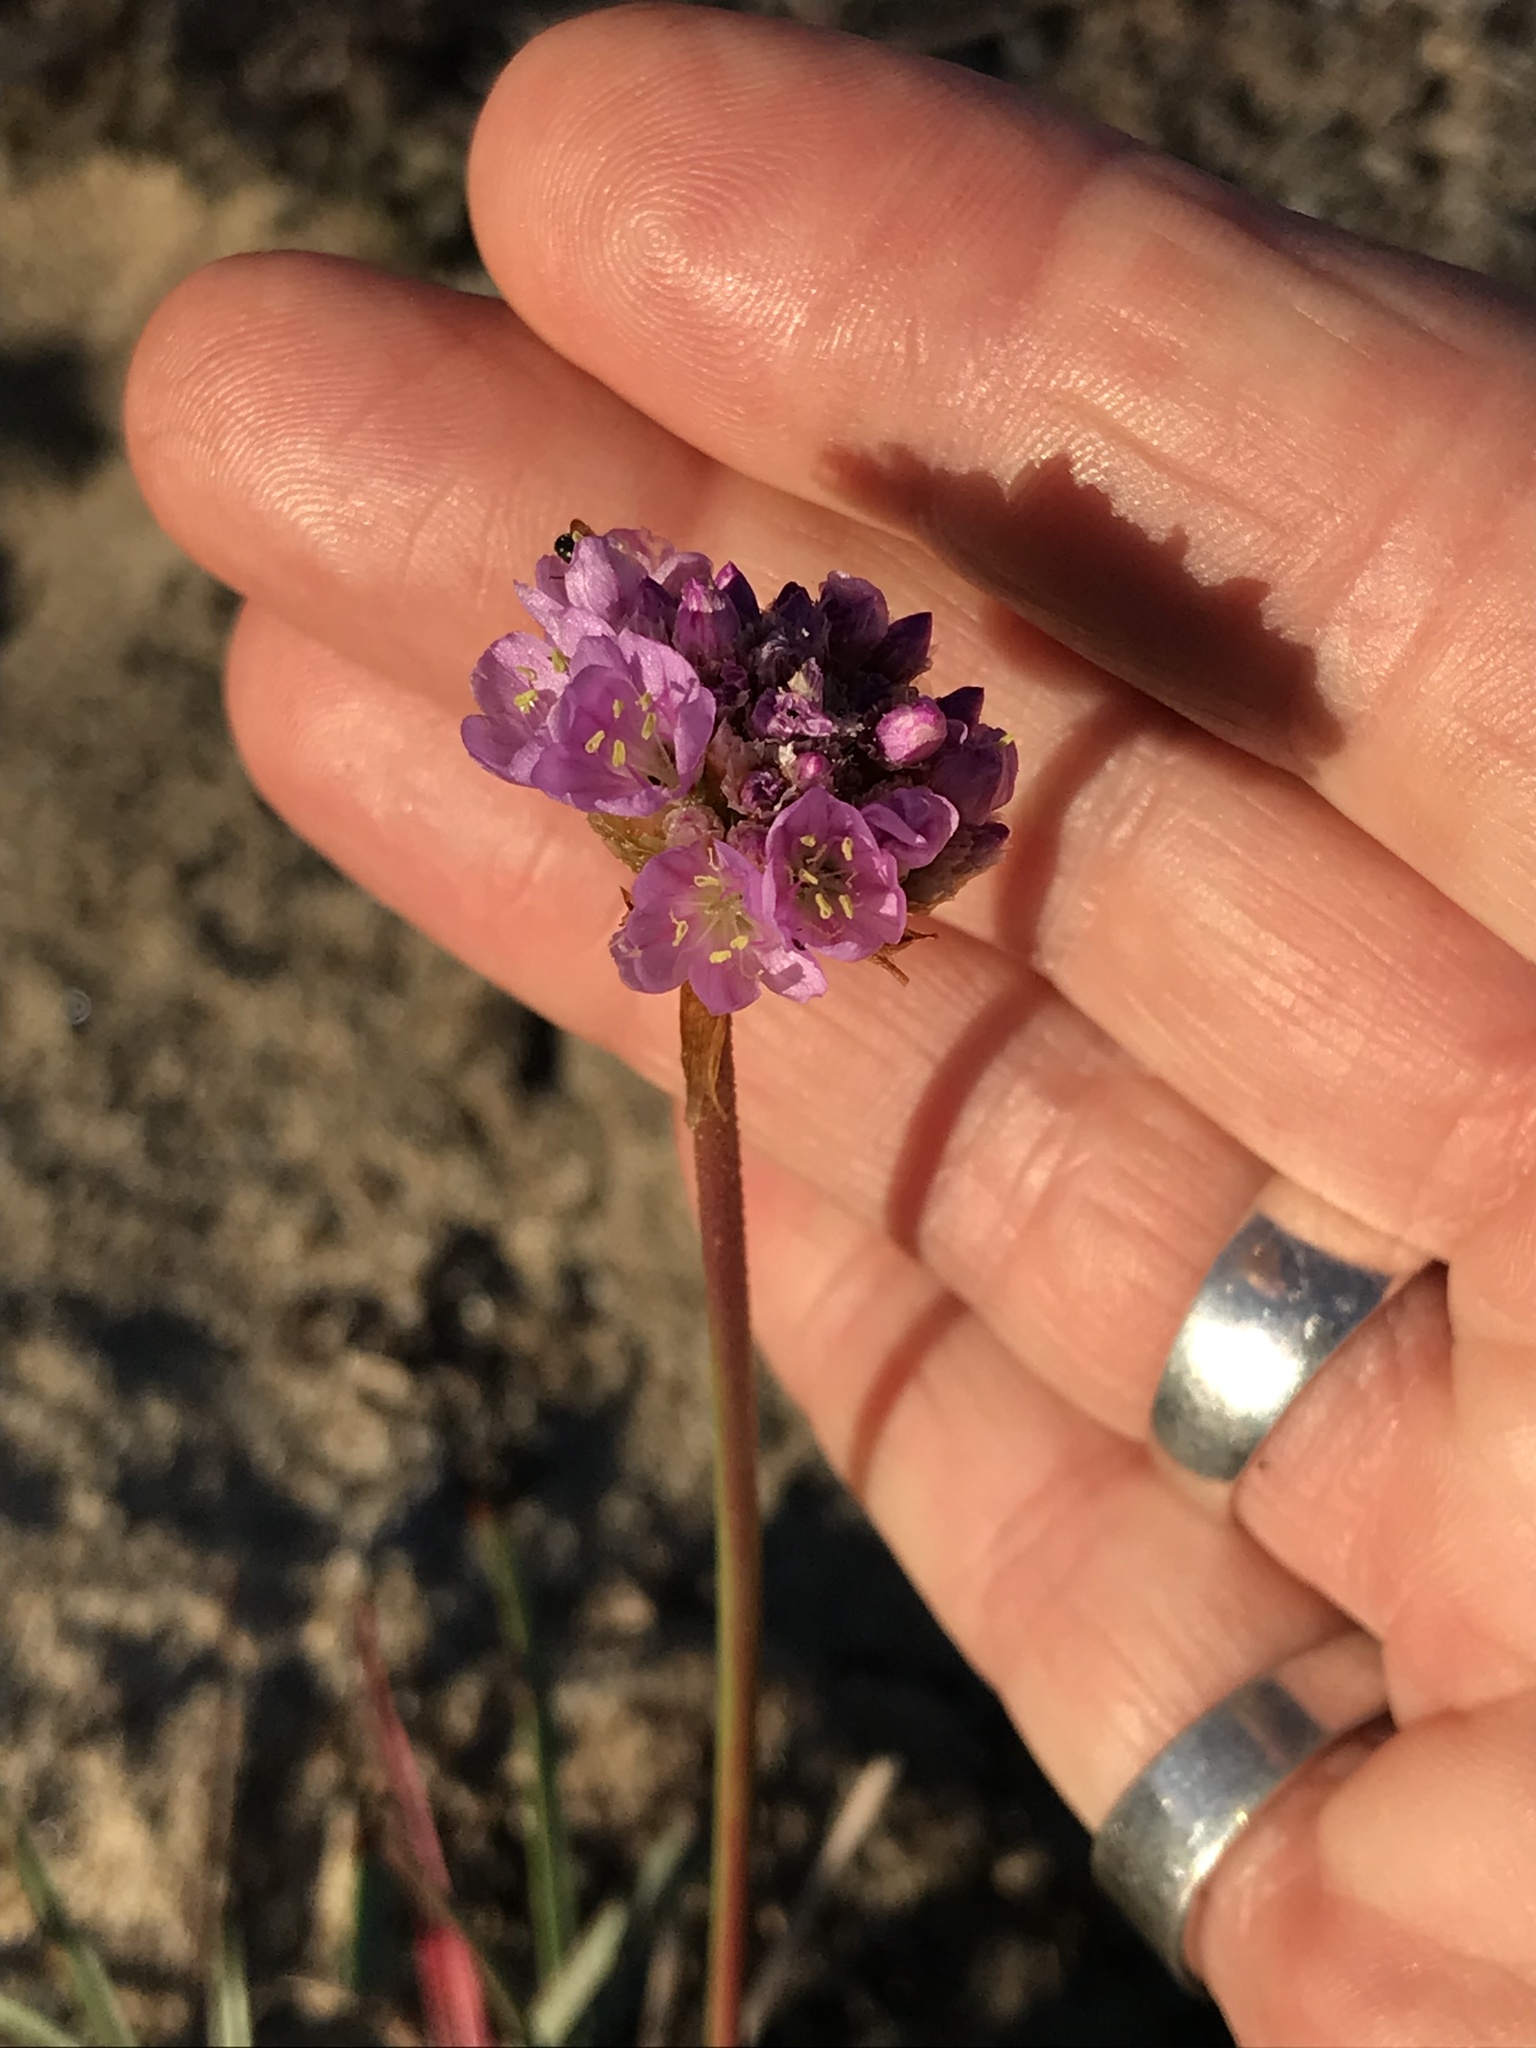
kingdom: Plantae
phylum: Tracheophyta
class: Magnoliopsida
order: Caryophyllales
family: Plumbaginaceae
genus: Armeria
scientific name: Armeria maritima
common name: Thrift
